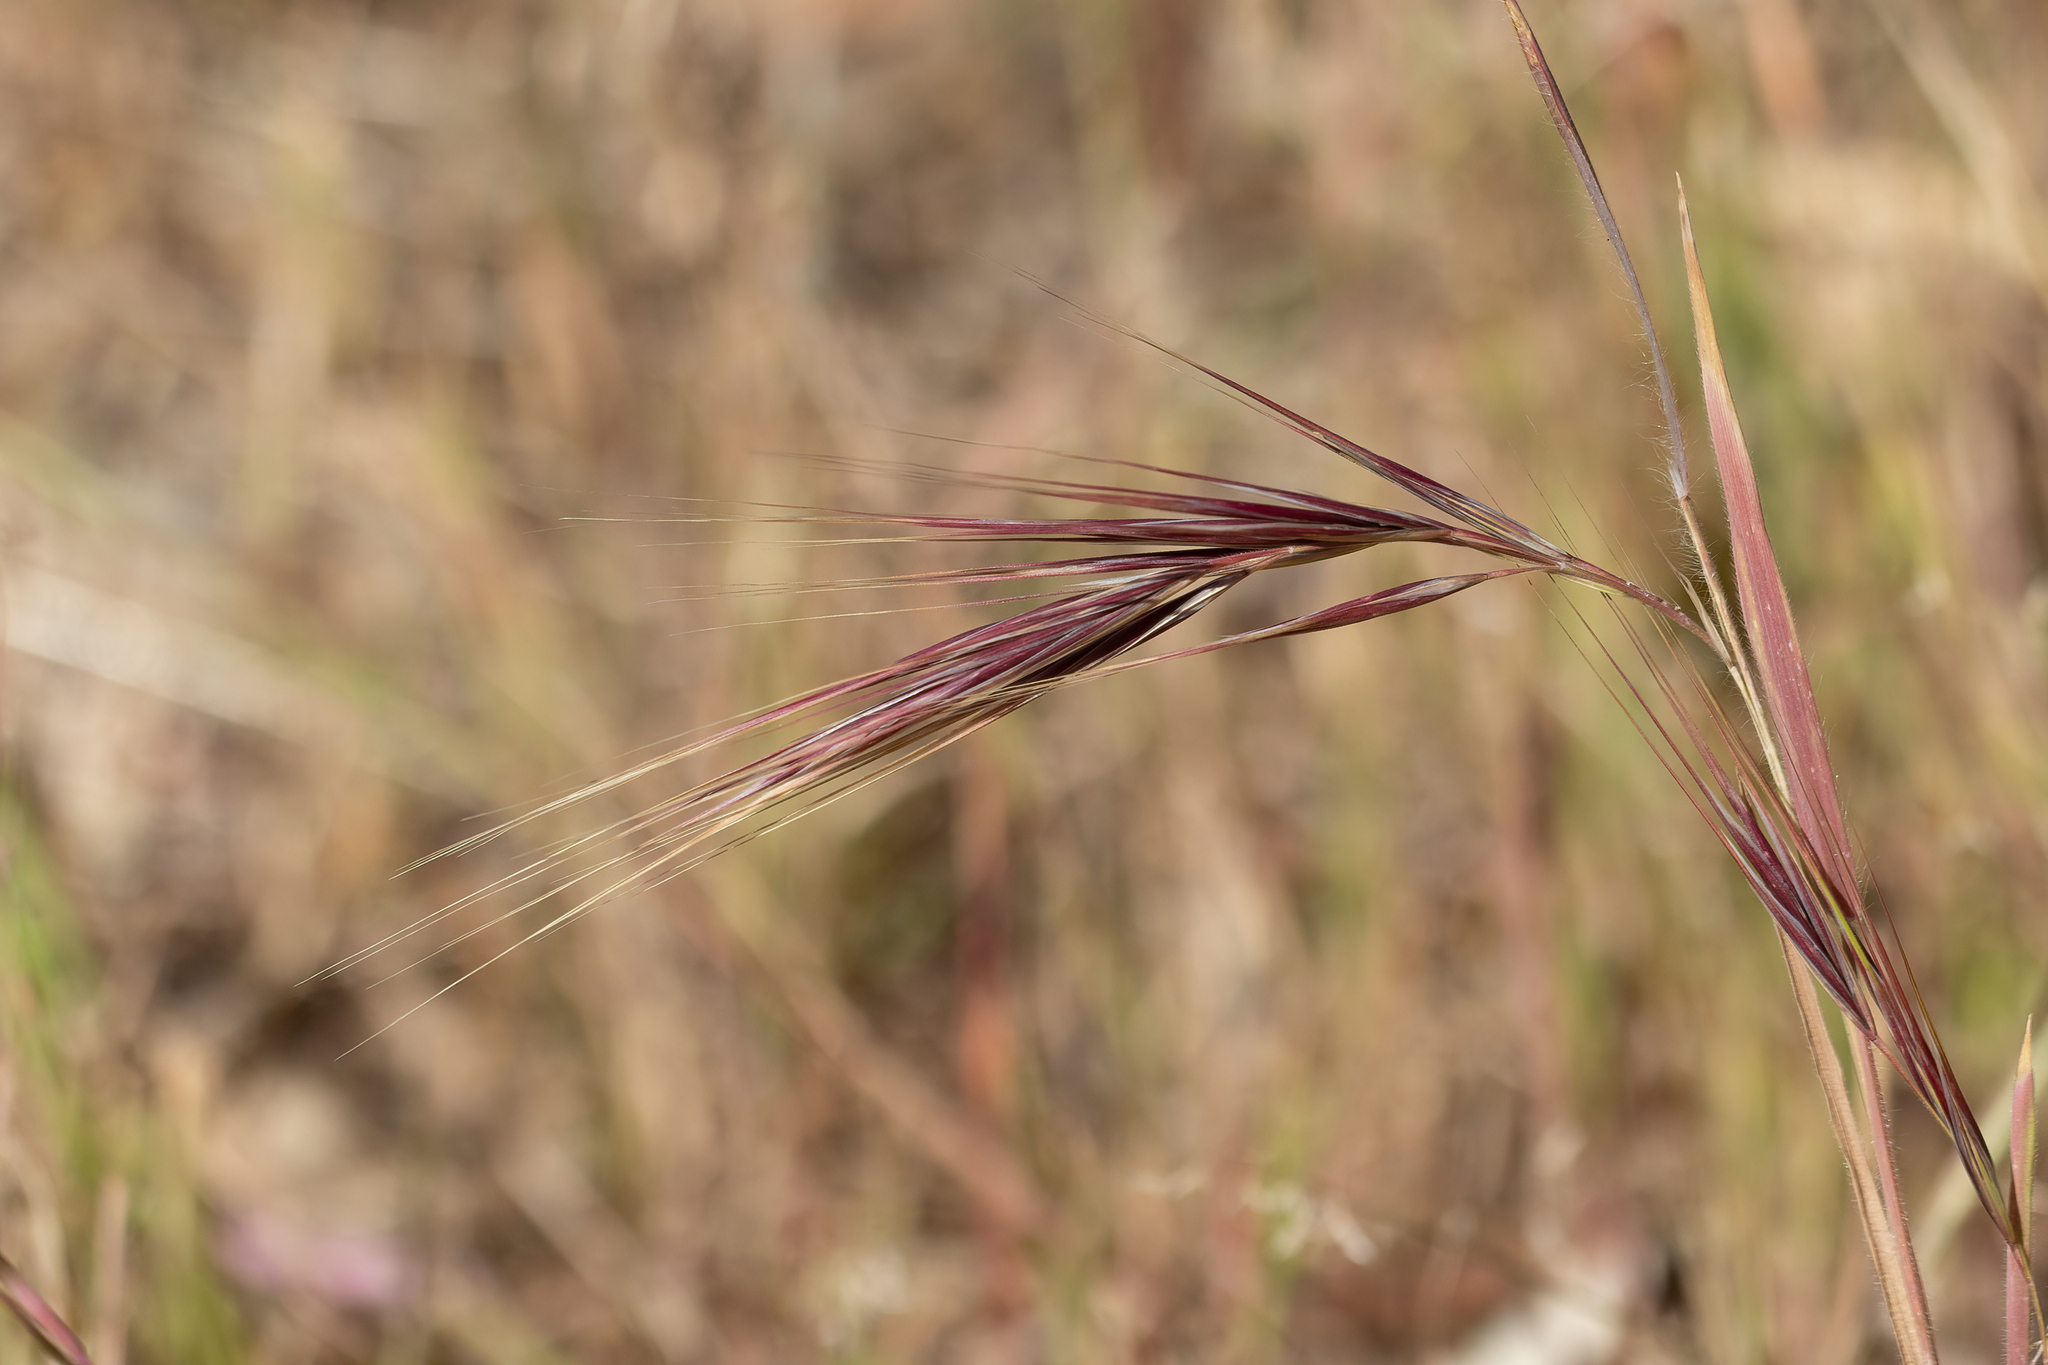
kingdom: Plantae
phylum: Tracheophyta
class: Liliopsida
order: Poales
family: Poaceae
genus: Bromus
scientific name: Bromus diandrus
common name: Ripgut brome
